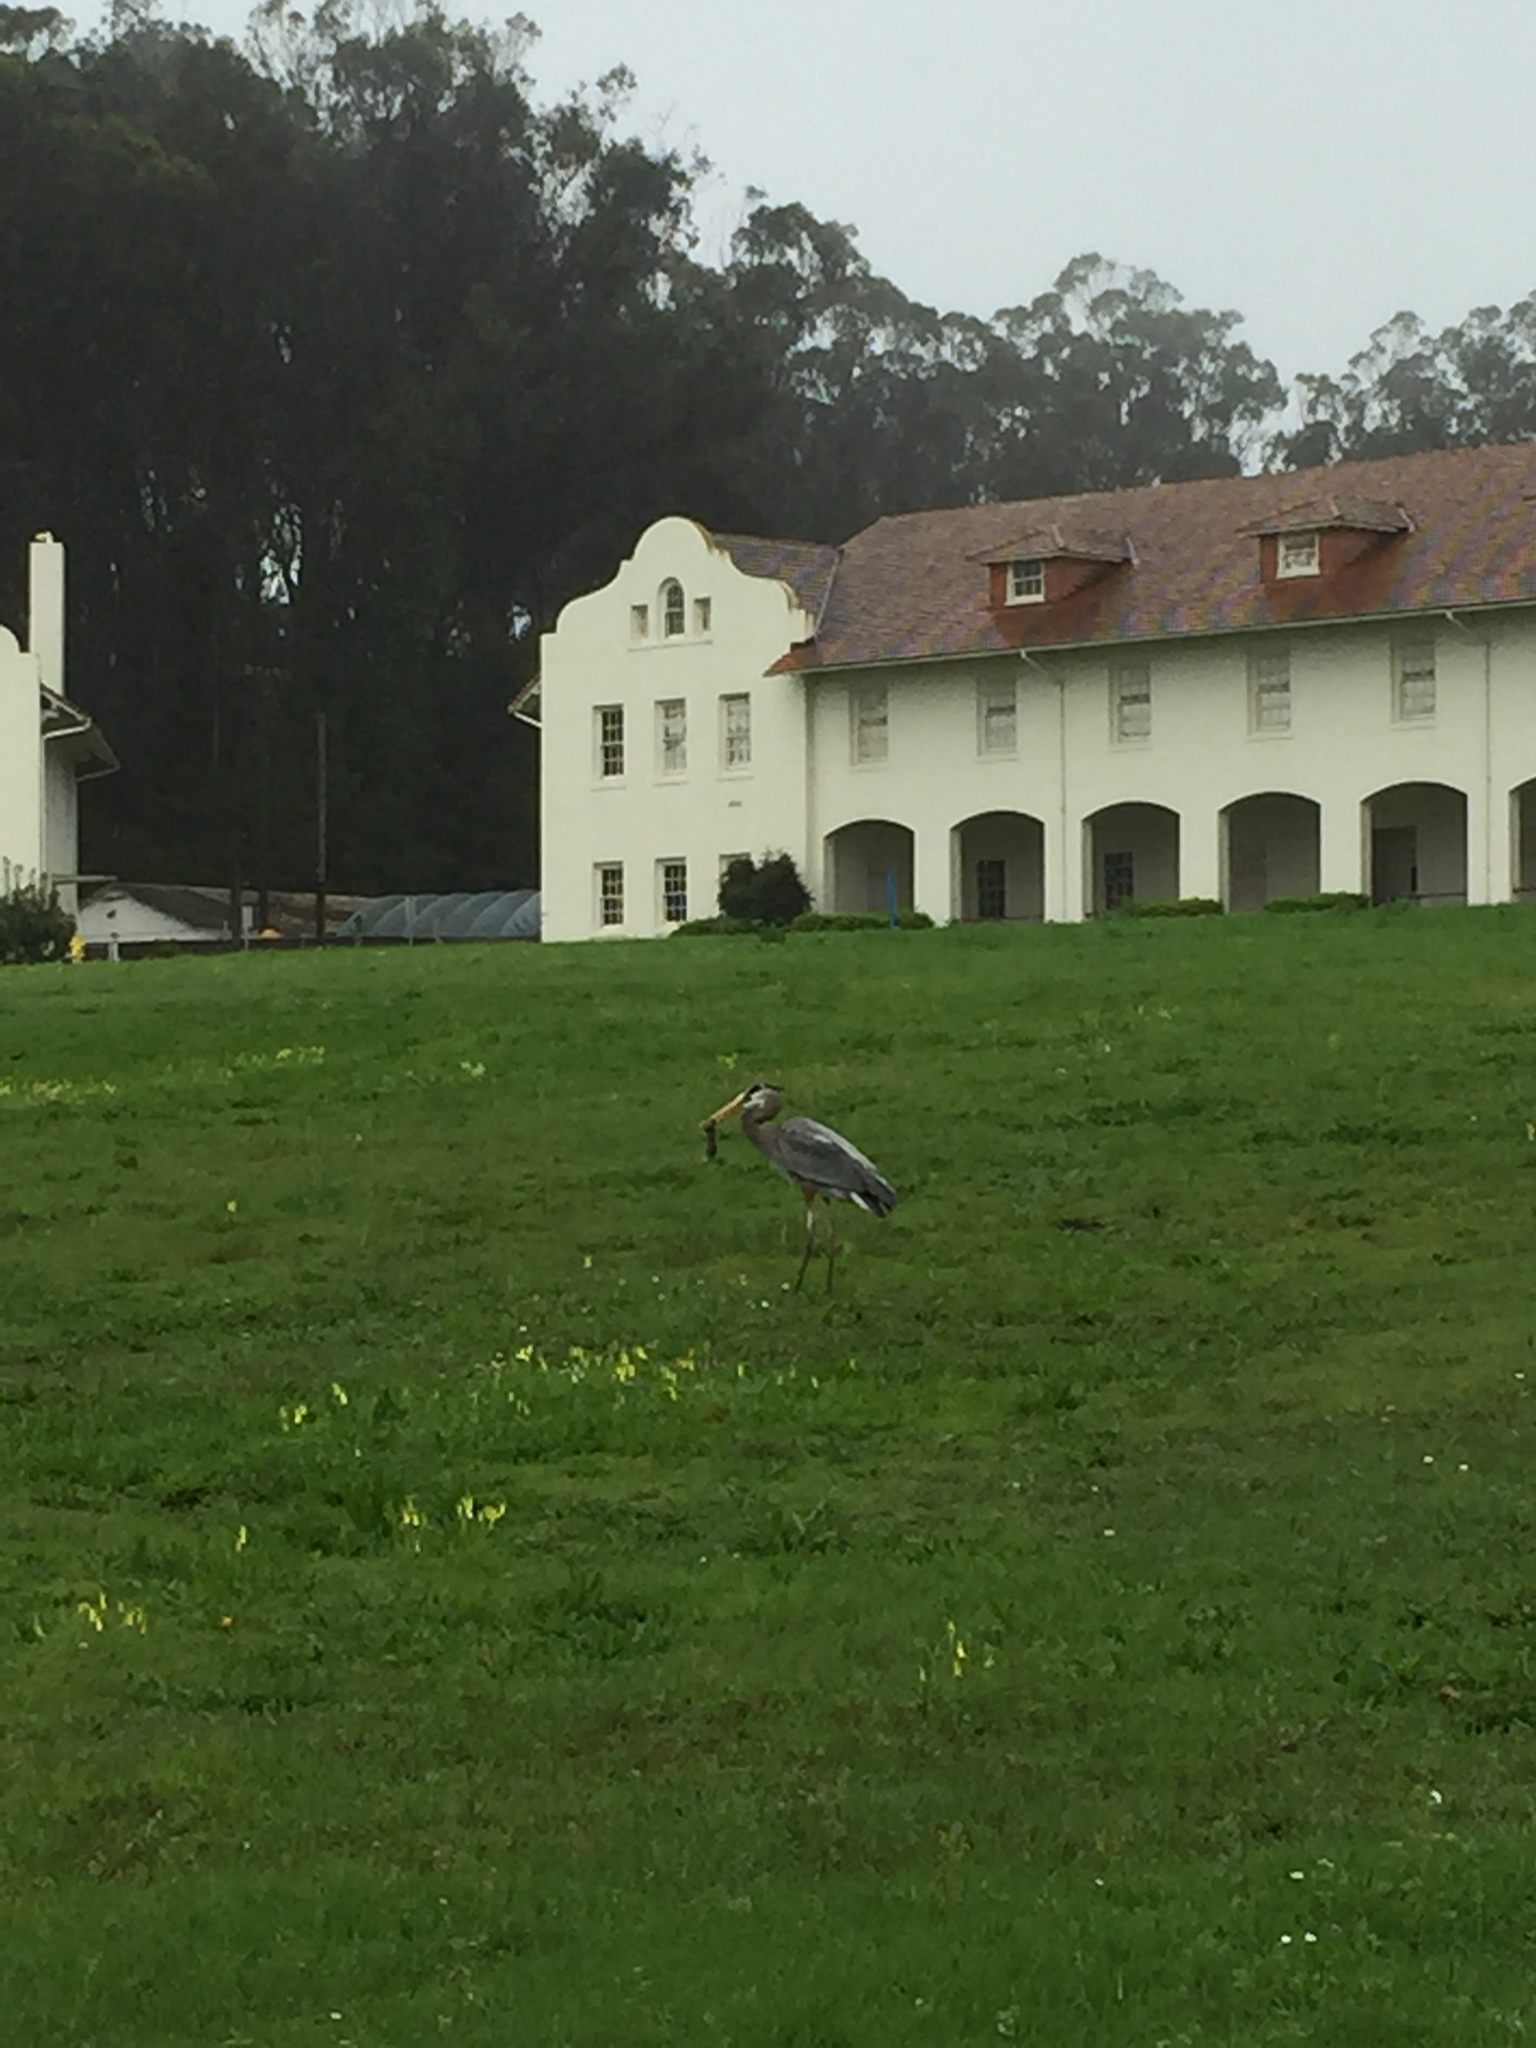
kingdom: Animalia
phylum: Chordata
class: Aves
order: Pelecaniformes
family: Ardeidae
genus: Ardea
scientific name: Ardea herodias
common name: Great blue heron
